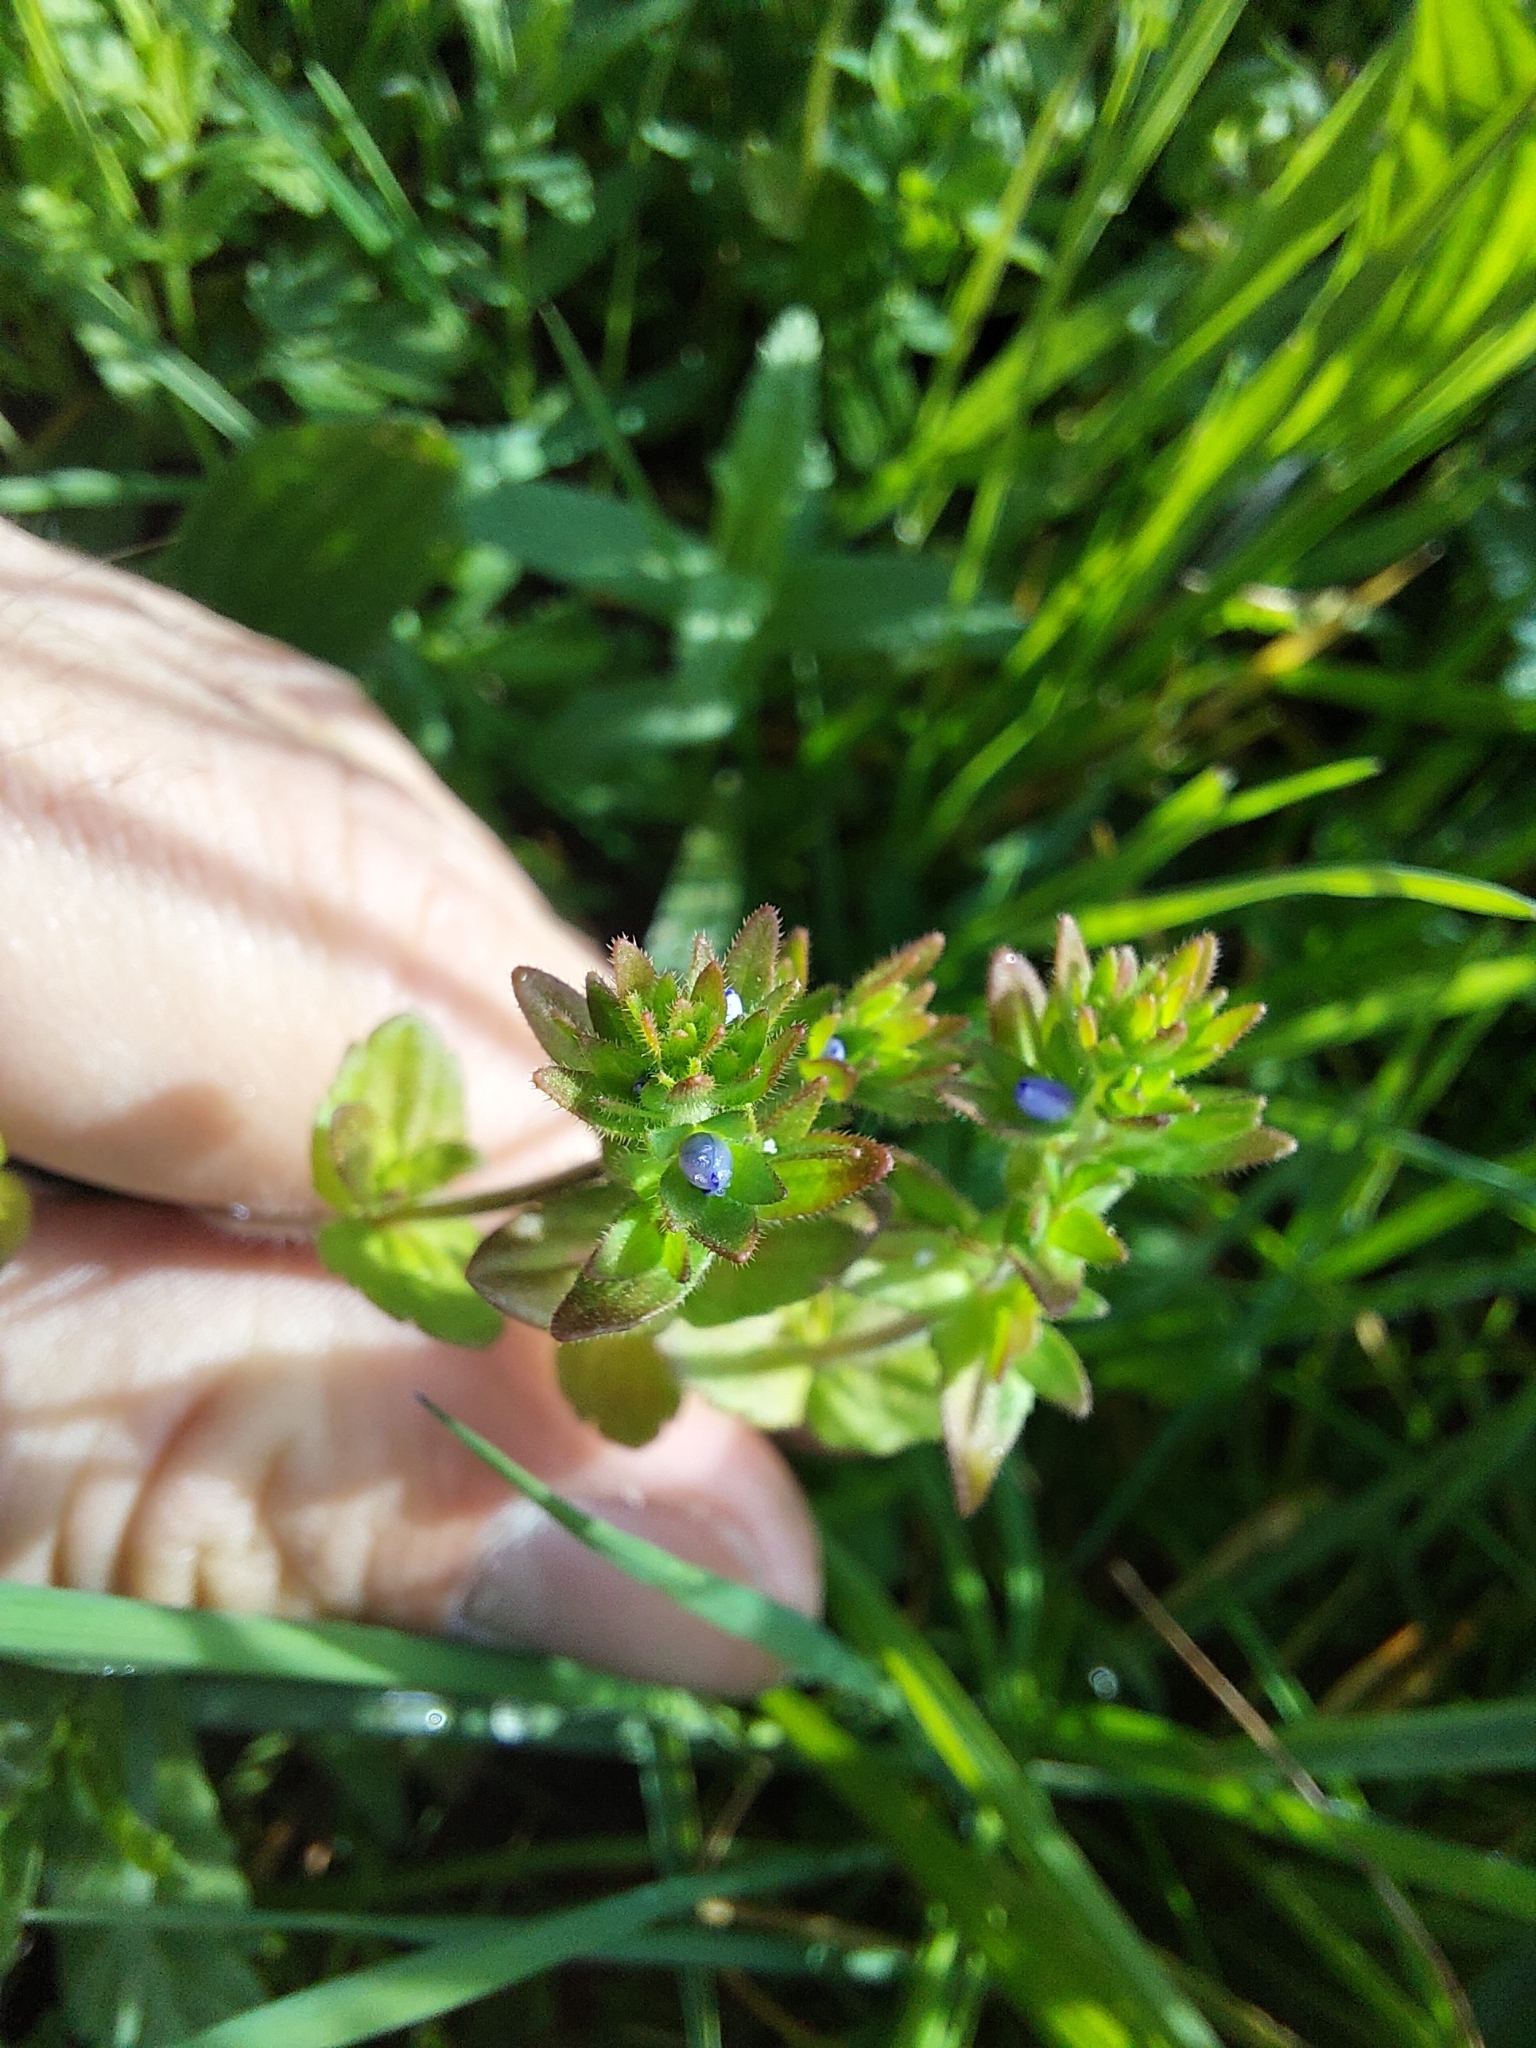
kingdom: Plantae
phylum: Tracheophyta
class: Magnoliopsida
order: Lamiales
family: Plantaginaceae
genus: Veronica
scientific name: Veronica arvensis
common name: Corn speedwell
